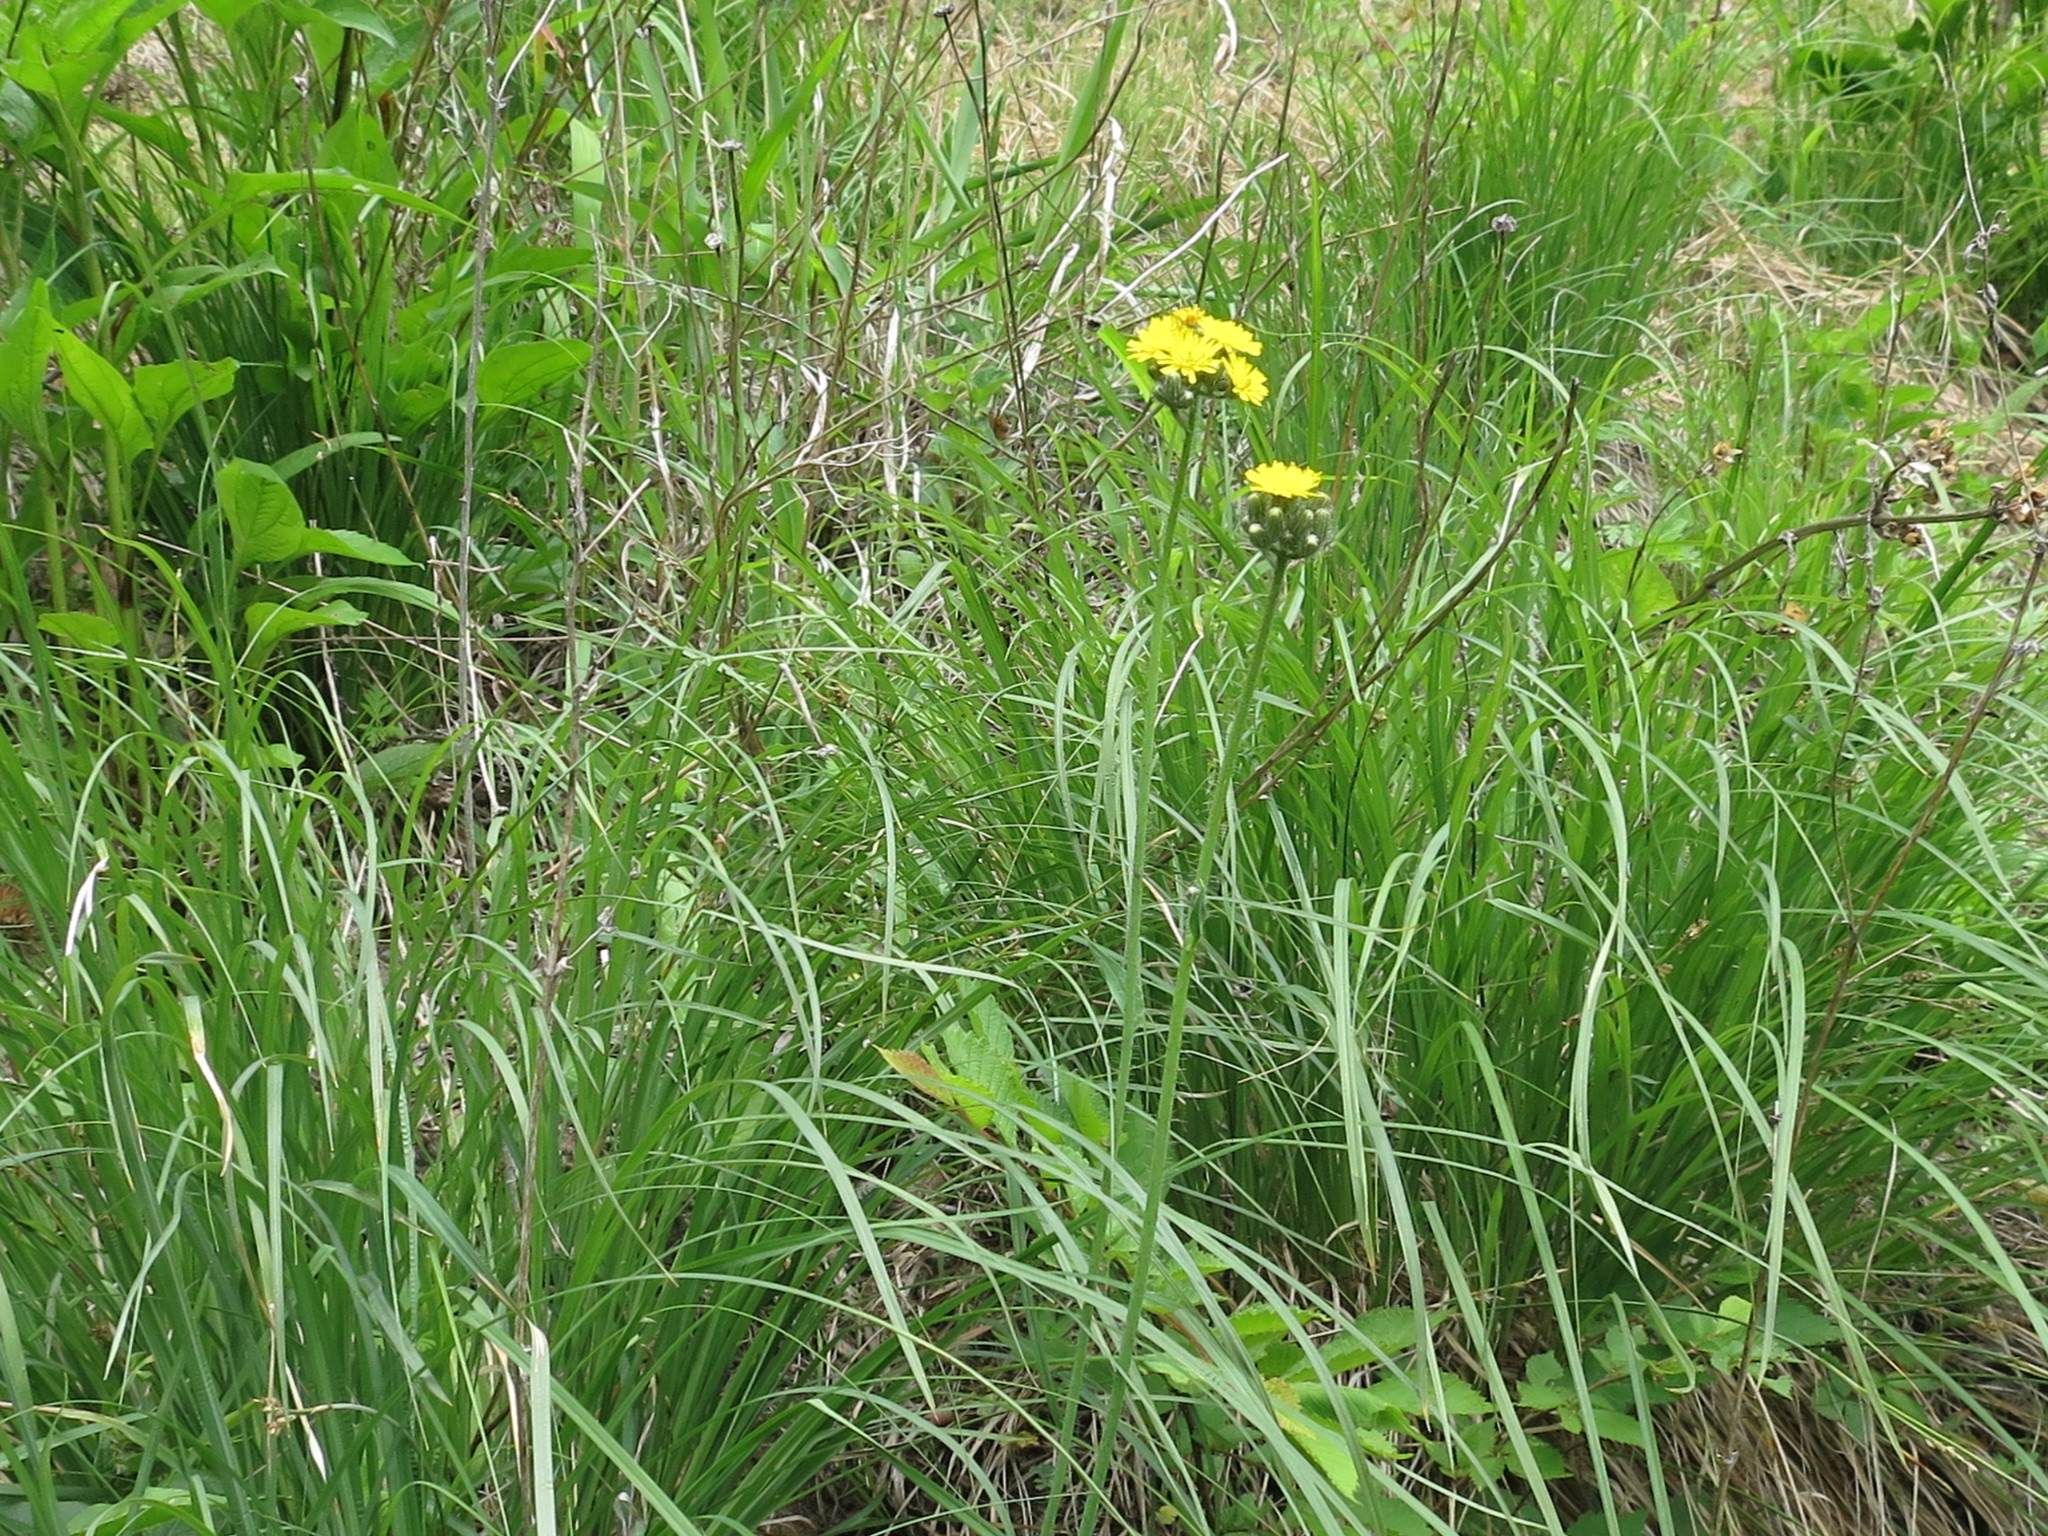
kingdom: Plantae
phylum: Tracheophyta
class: Magnoliopsida
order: Asterales
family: Asteraceae
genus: Pilosella
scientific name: Pilosella floribunda
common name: Glaucous hawkweed
